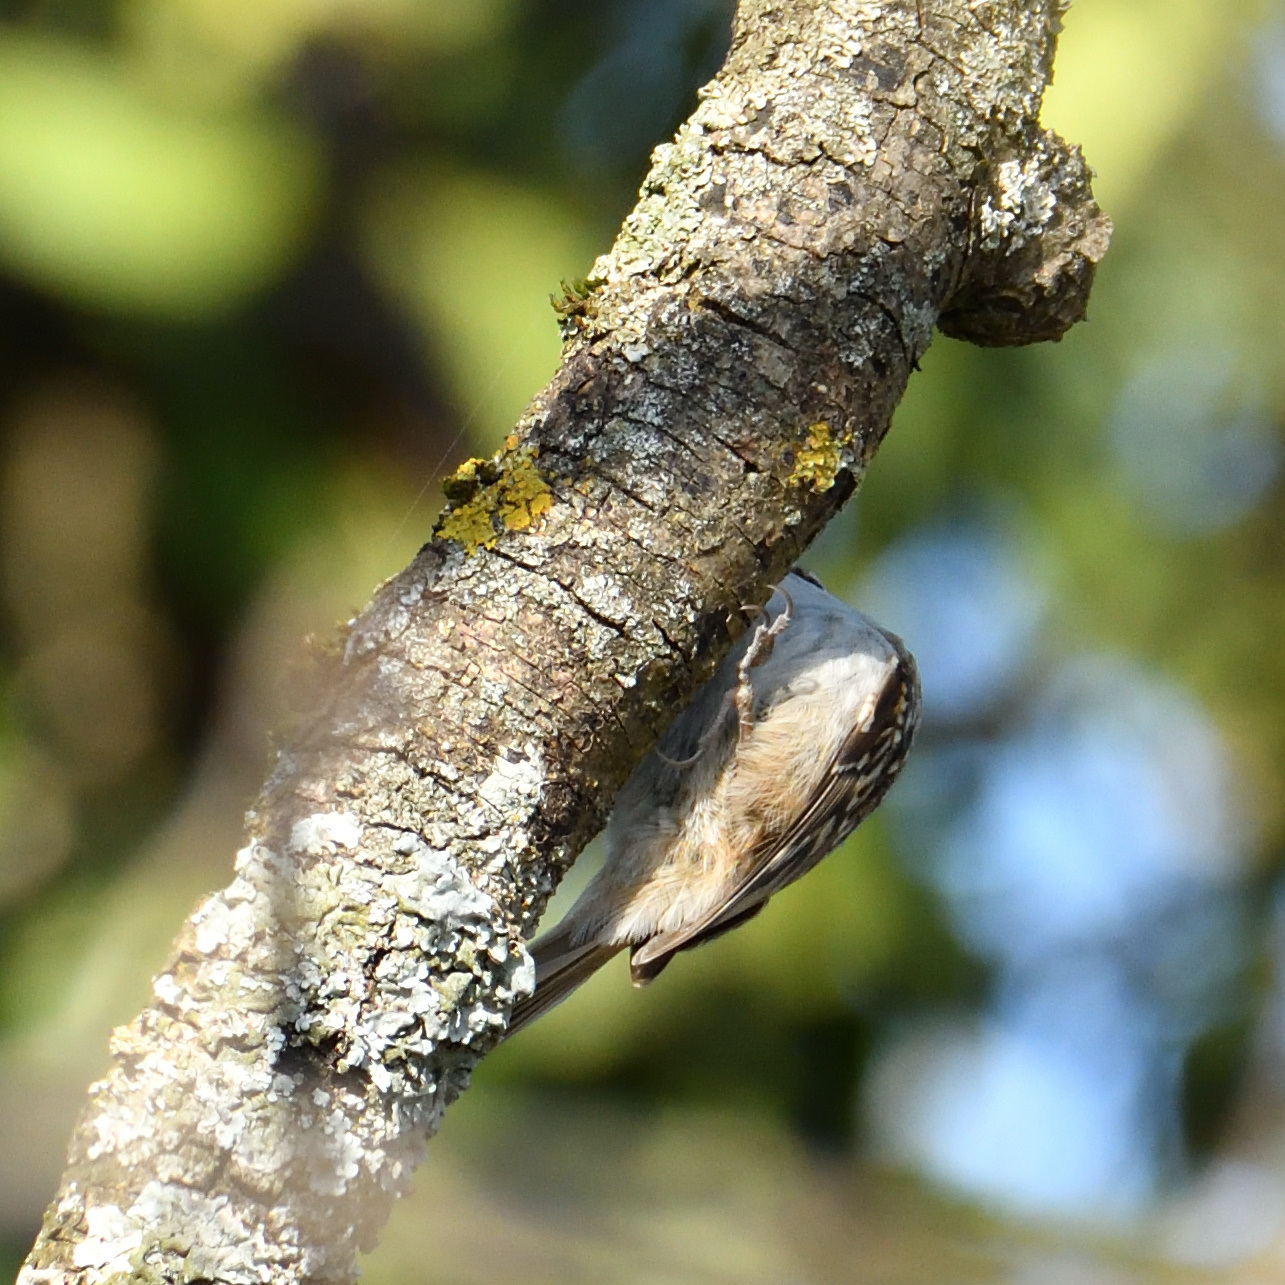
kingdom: Animalia
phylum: Chordata
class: Aves
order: Passeriformes
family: Certhiidae
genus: Certhia
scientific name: Certhia brachydactyla
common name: Short-toed treecreeper
